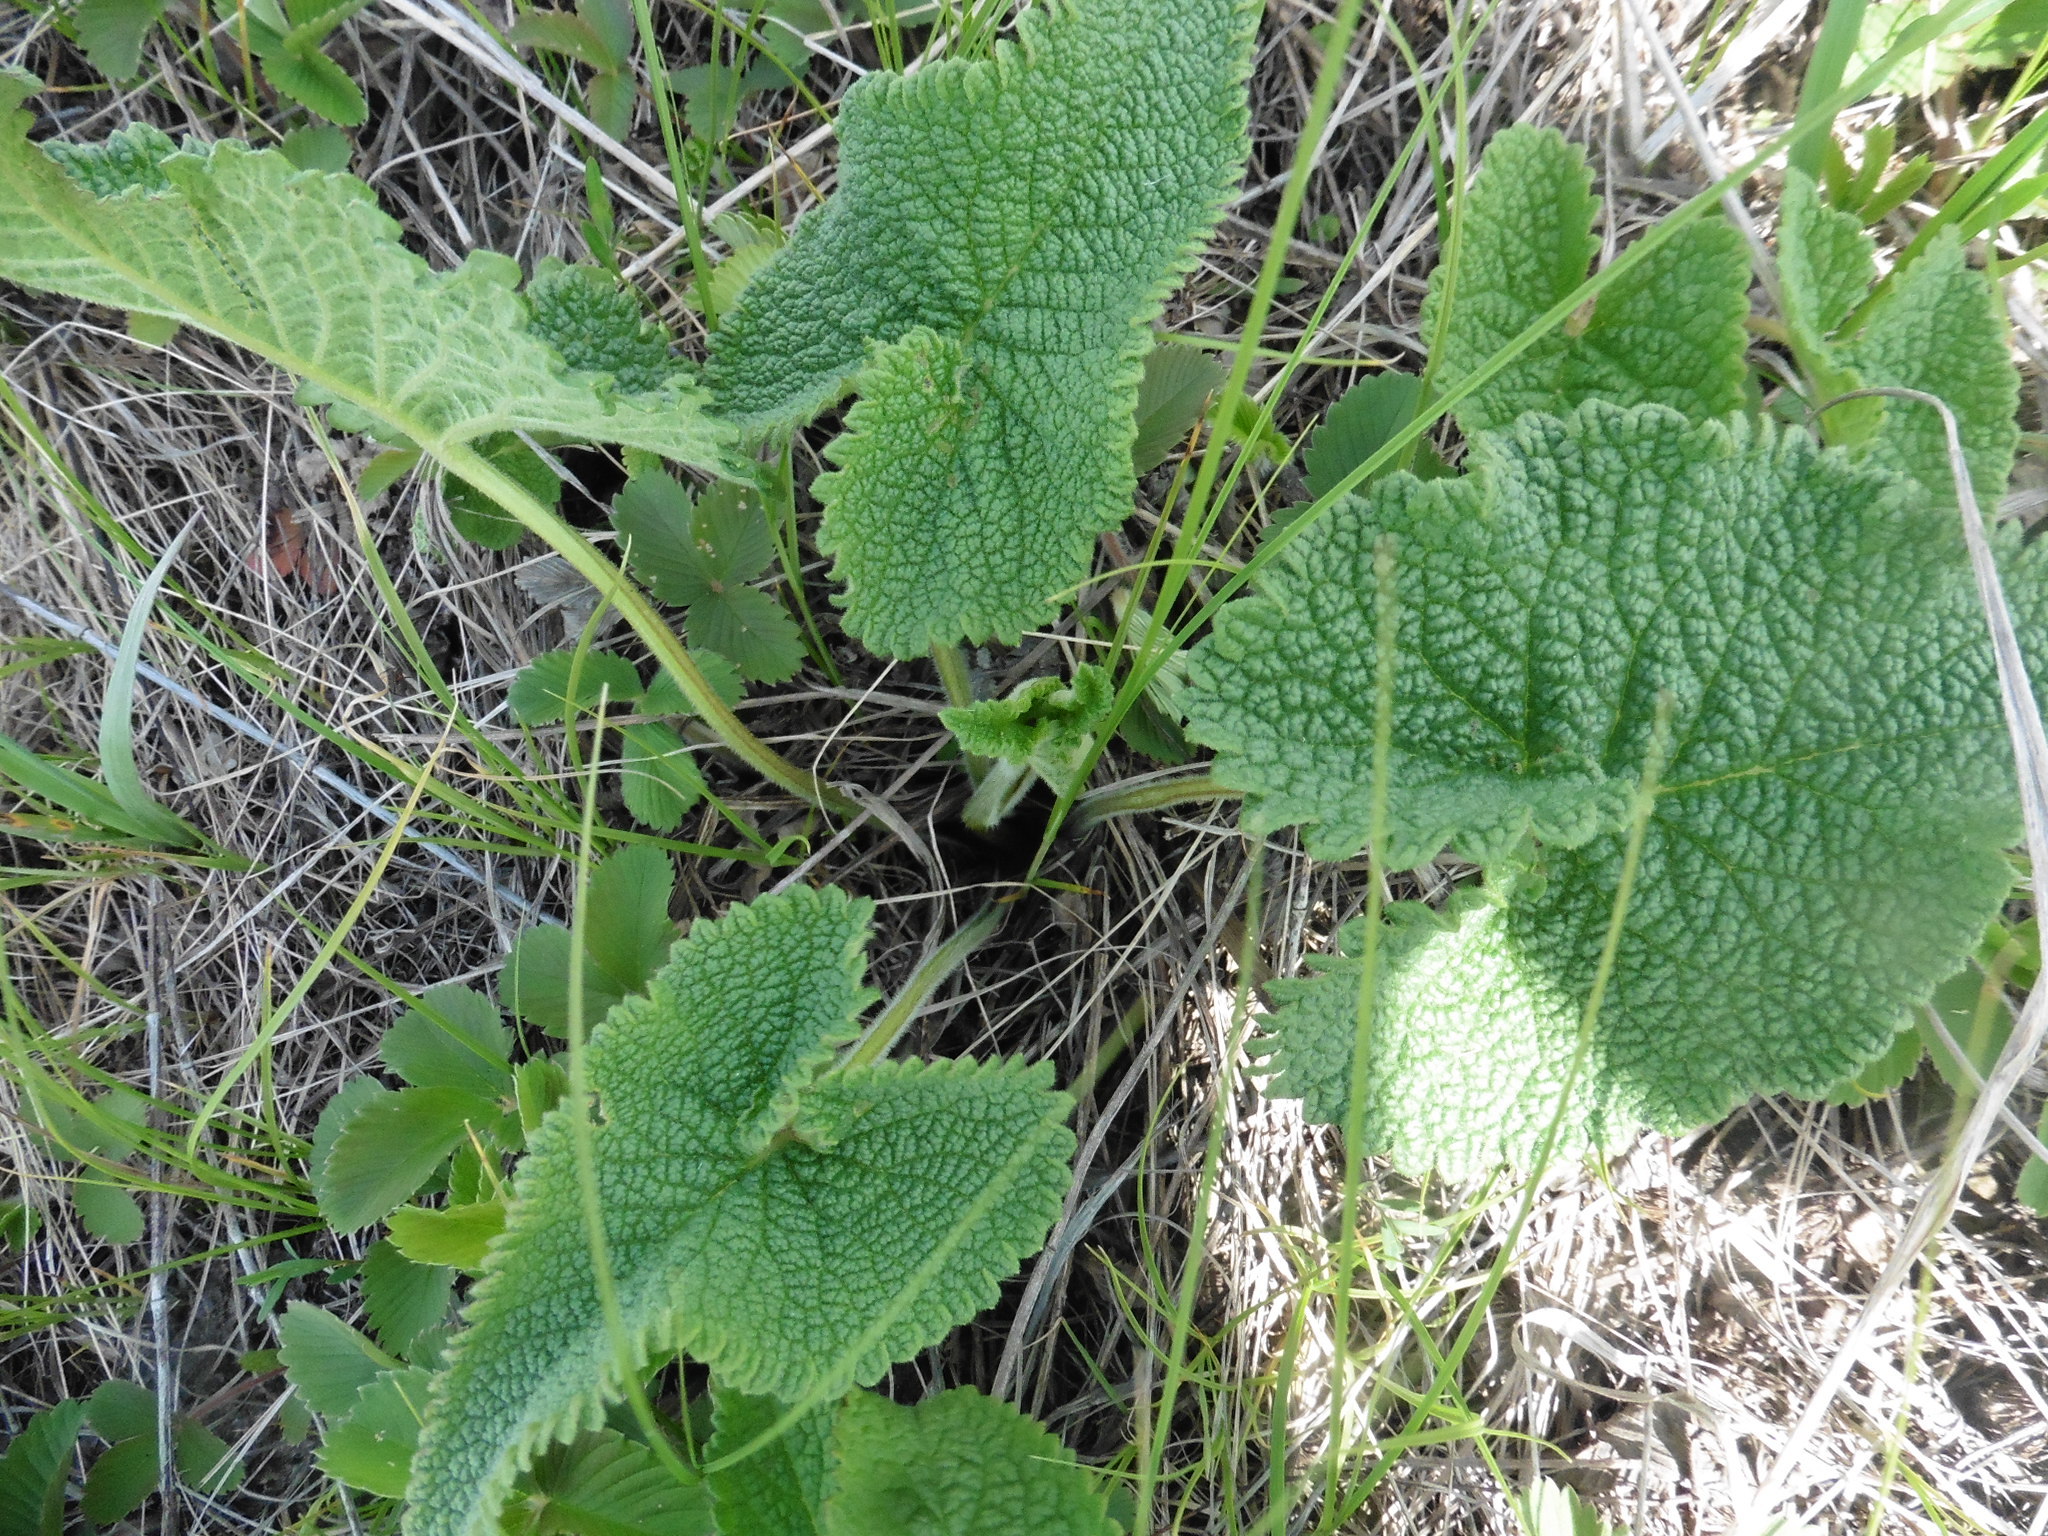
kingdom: Plantae
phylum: Tracheophyta
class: Magnoliopsida
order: Lamiales
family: Lamiaceae
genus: Phlomoides
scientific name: Phlomoides tuberosa
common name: Tuberous jerusalem sage
